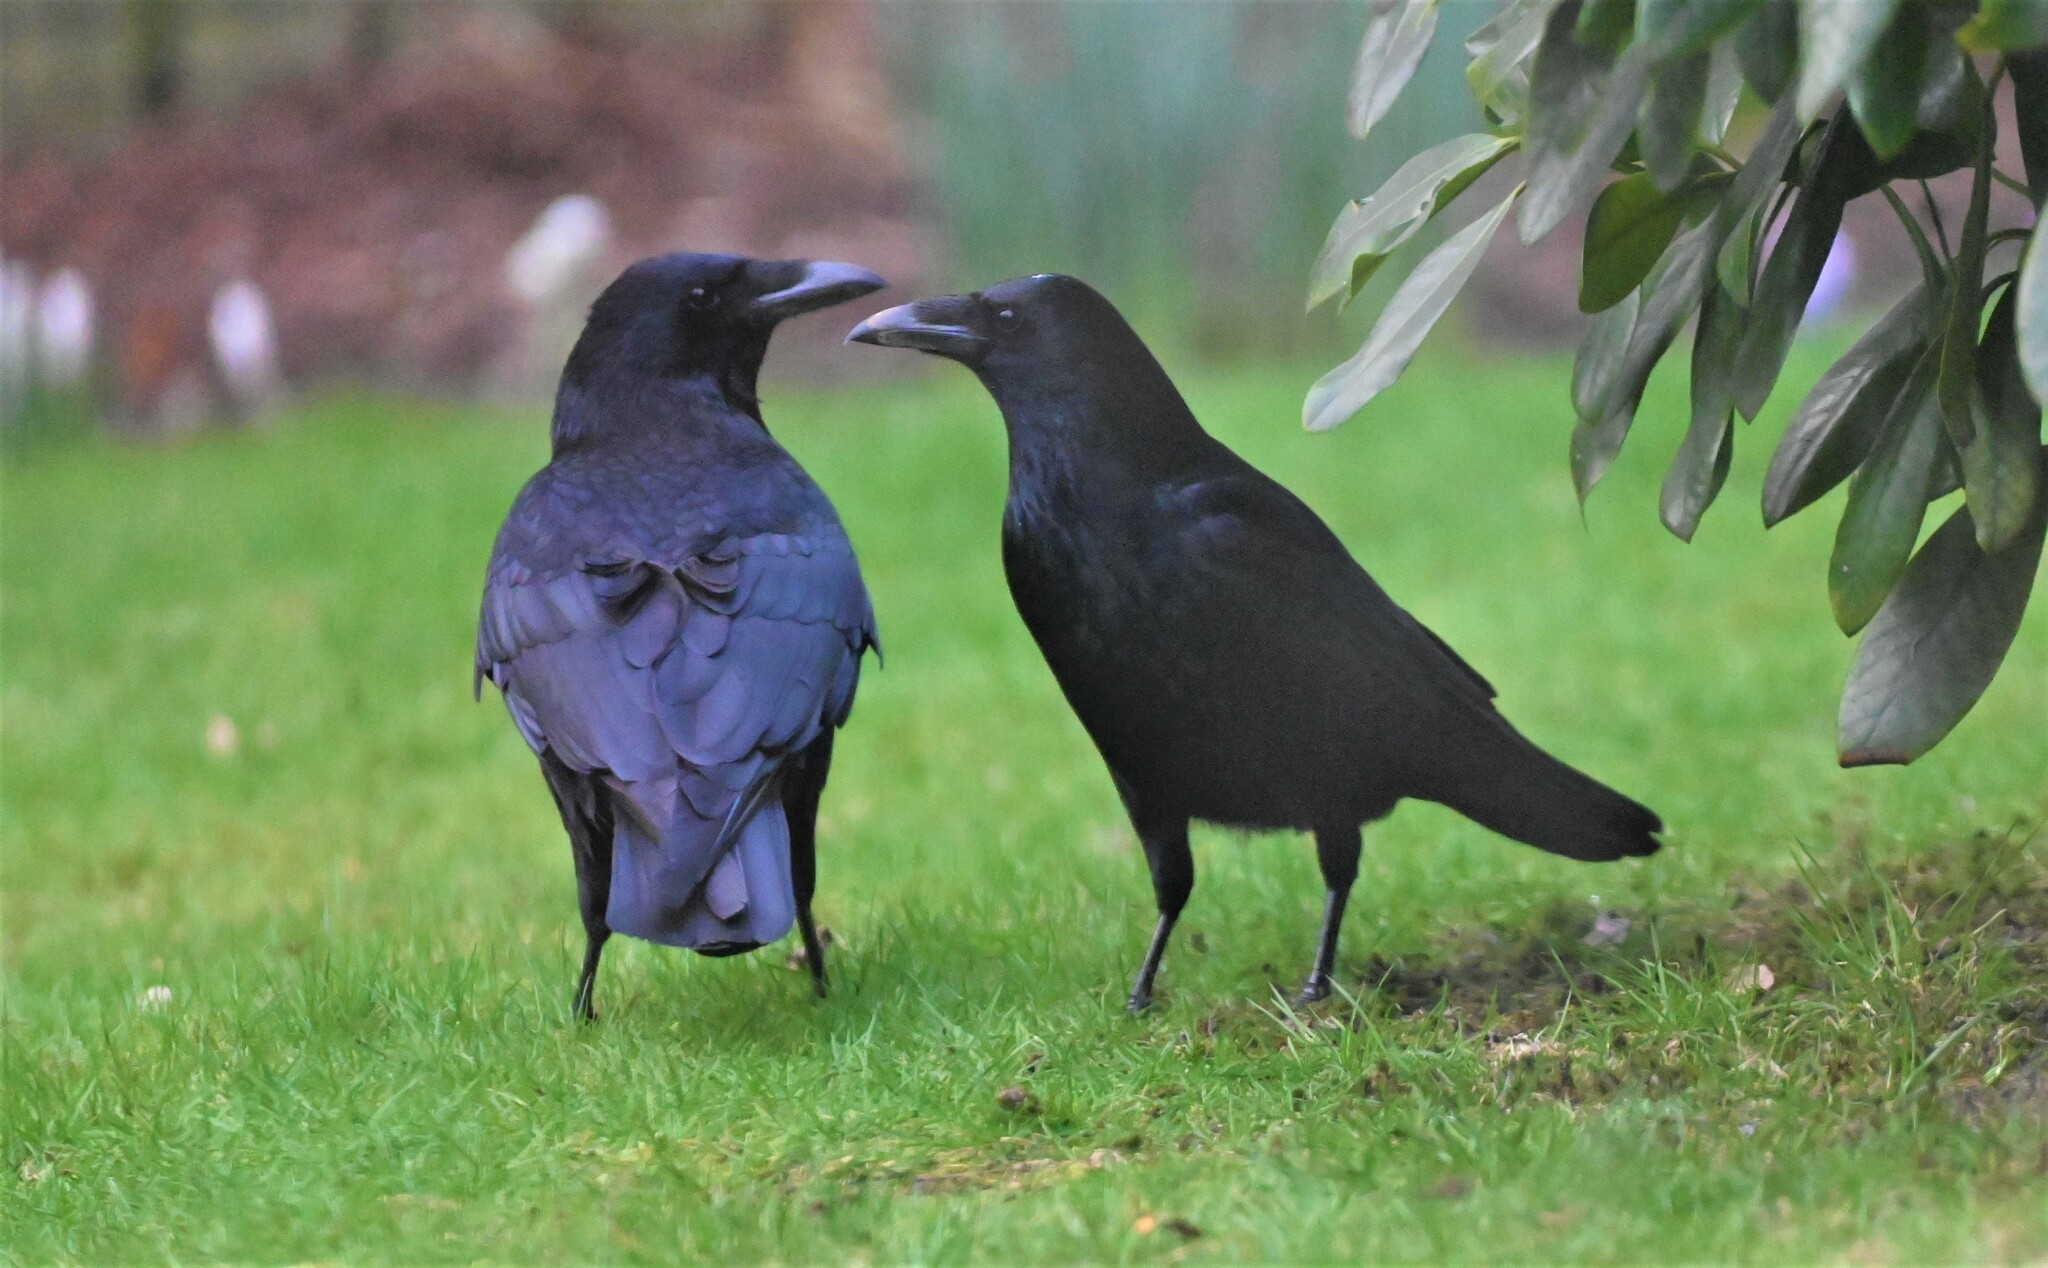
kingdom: Animalia
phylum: Chordata
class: Aves
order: Passeriformes
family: Corvidae
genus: Corvus
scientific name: Corvus corone
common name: Carrion crow
